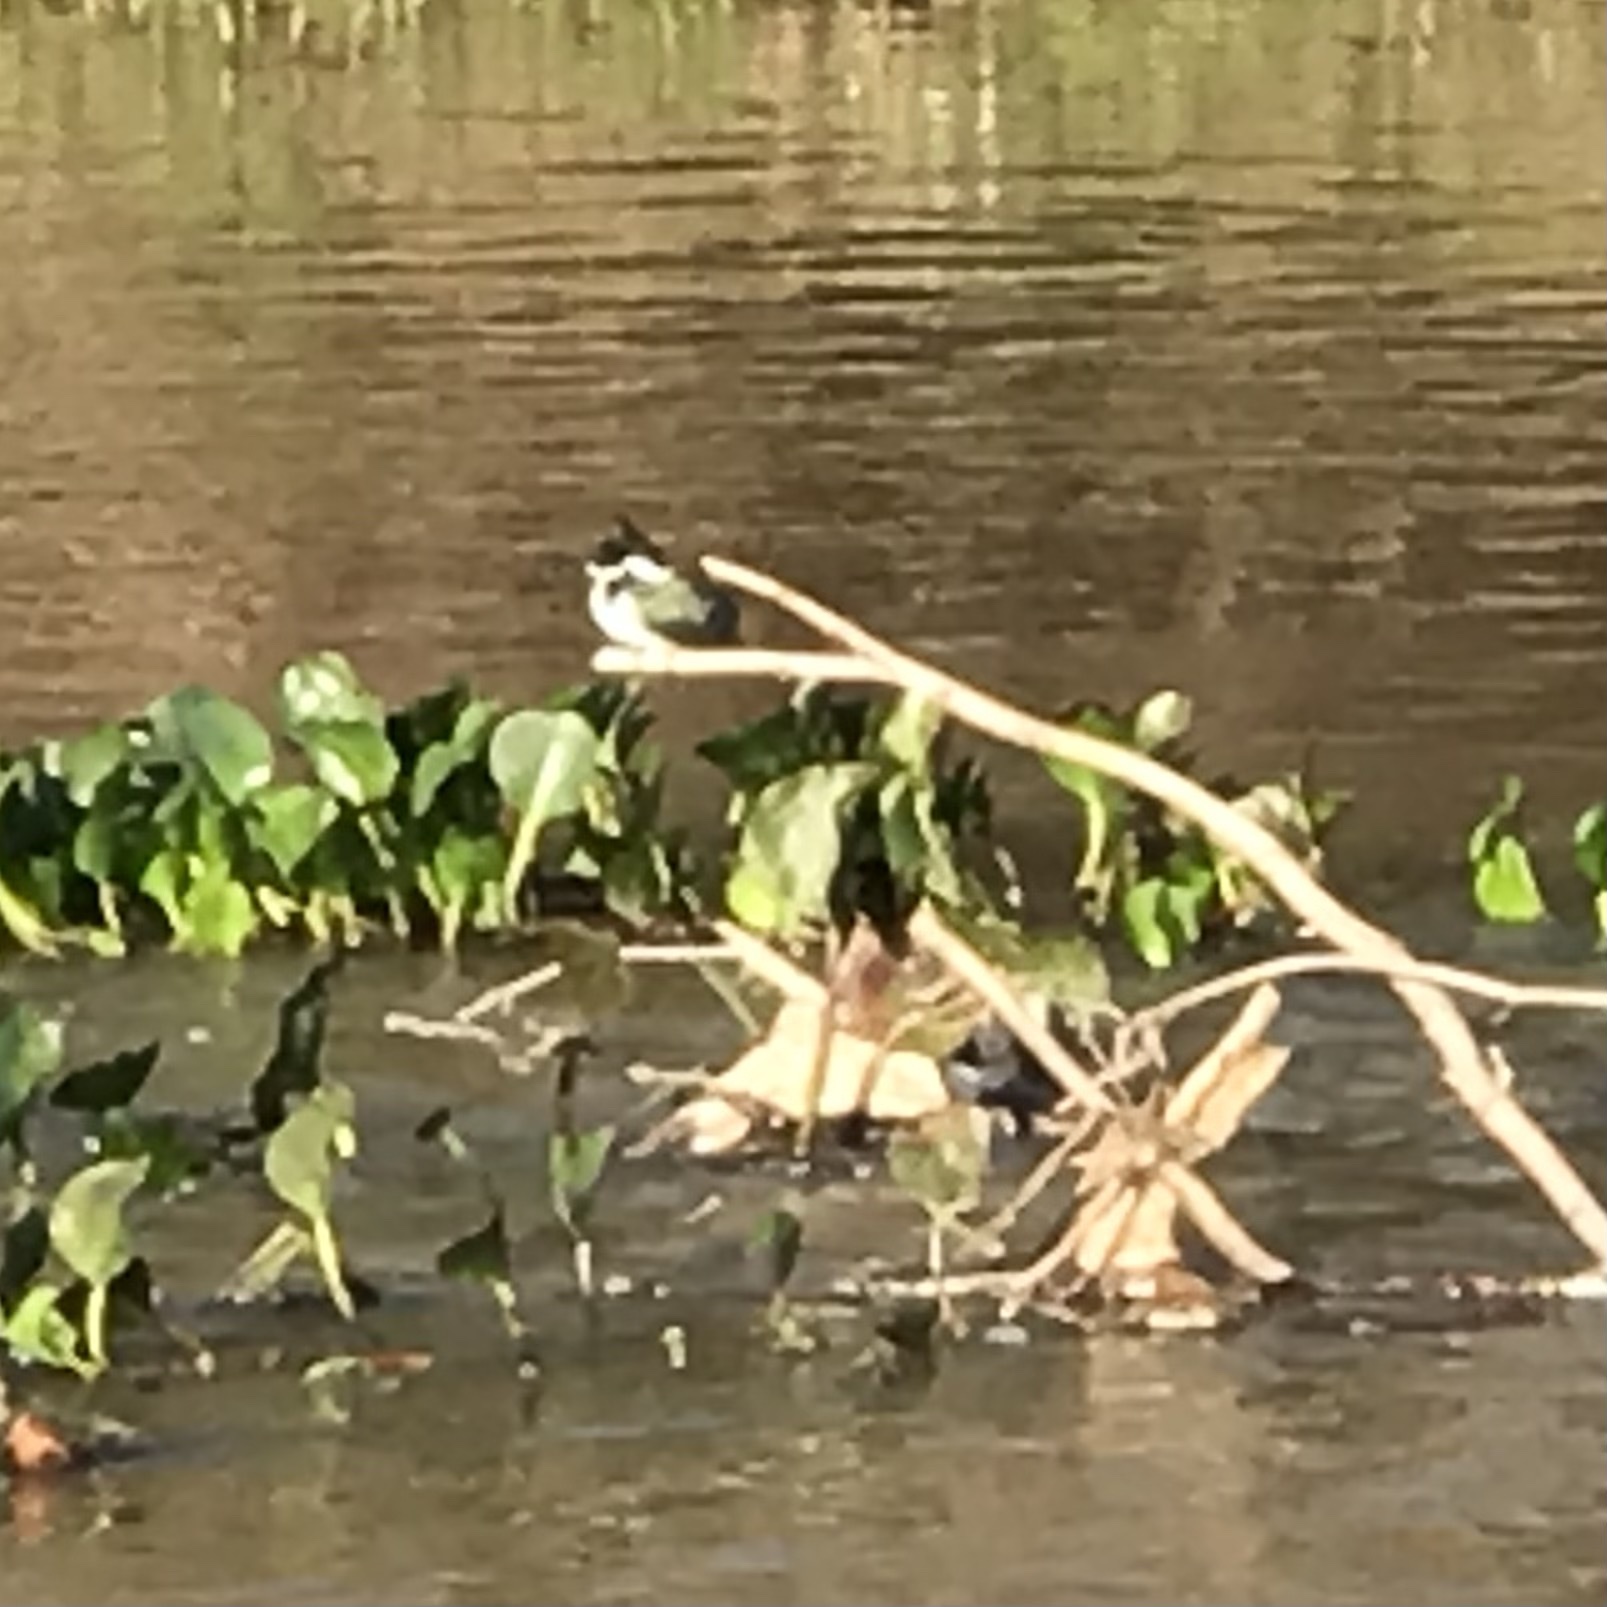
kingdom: Animalia
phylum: Chordata
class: Aves
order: Coraciiformes
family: Alcedinidae
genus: Chloroceryle
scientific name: Chloroceryle amazona
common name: Amazon kingfisher
